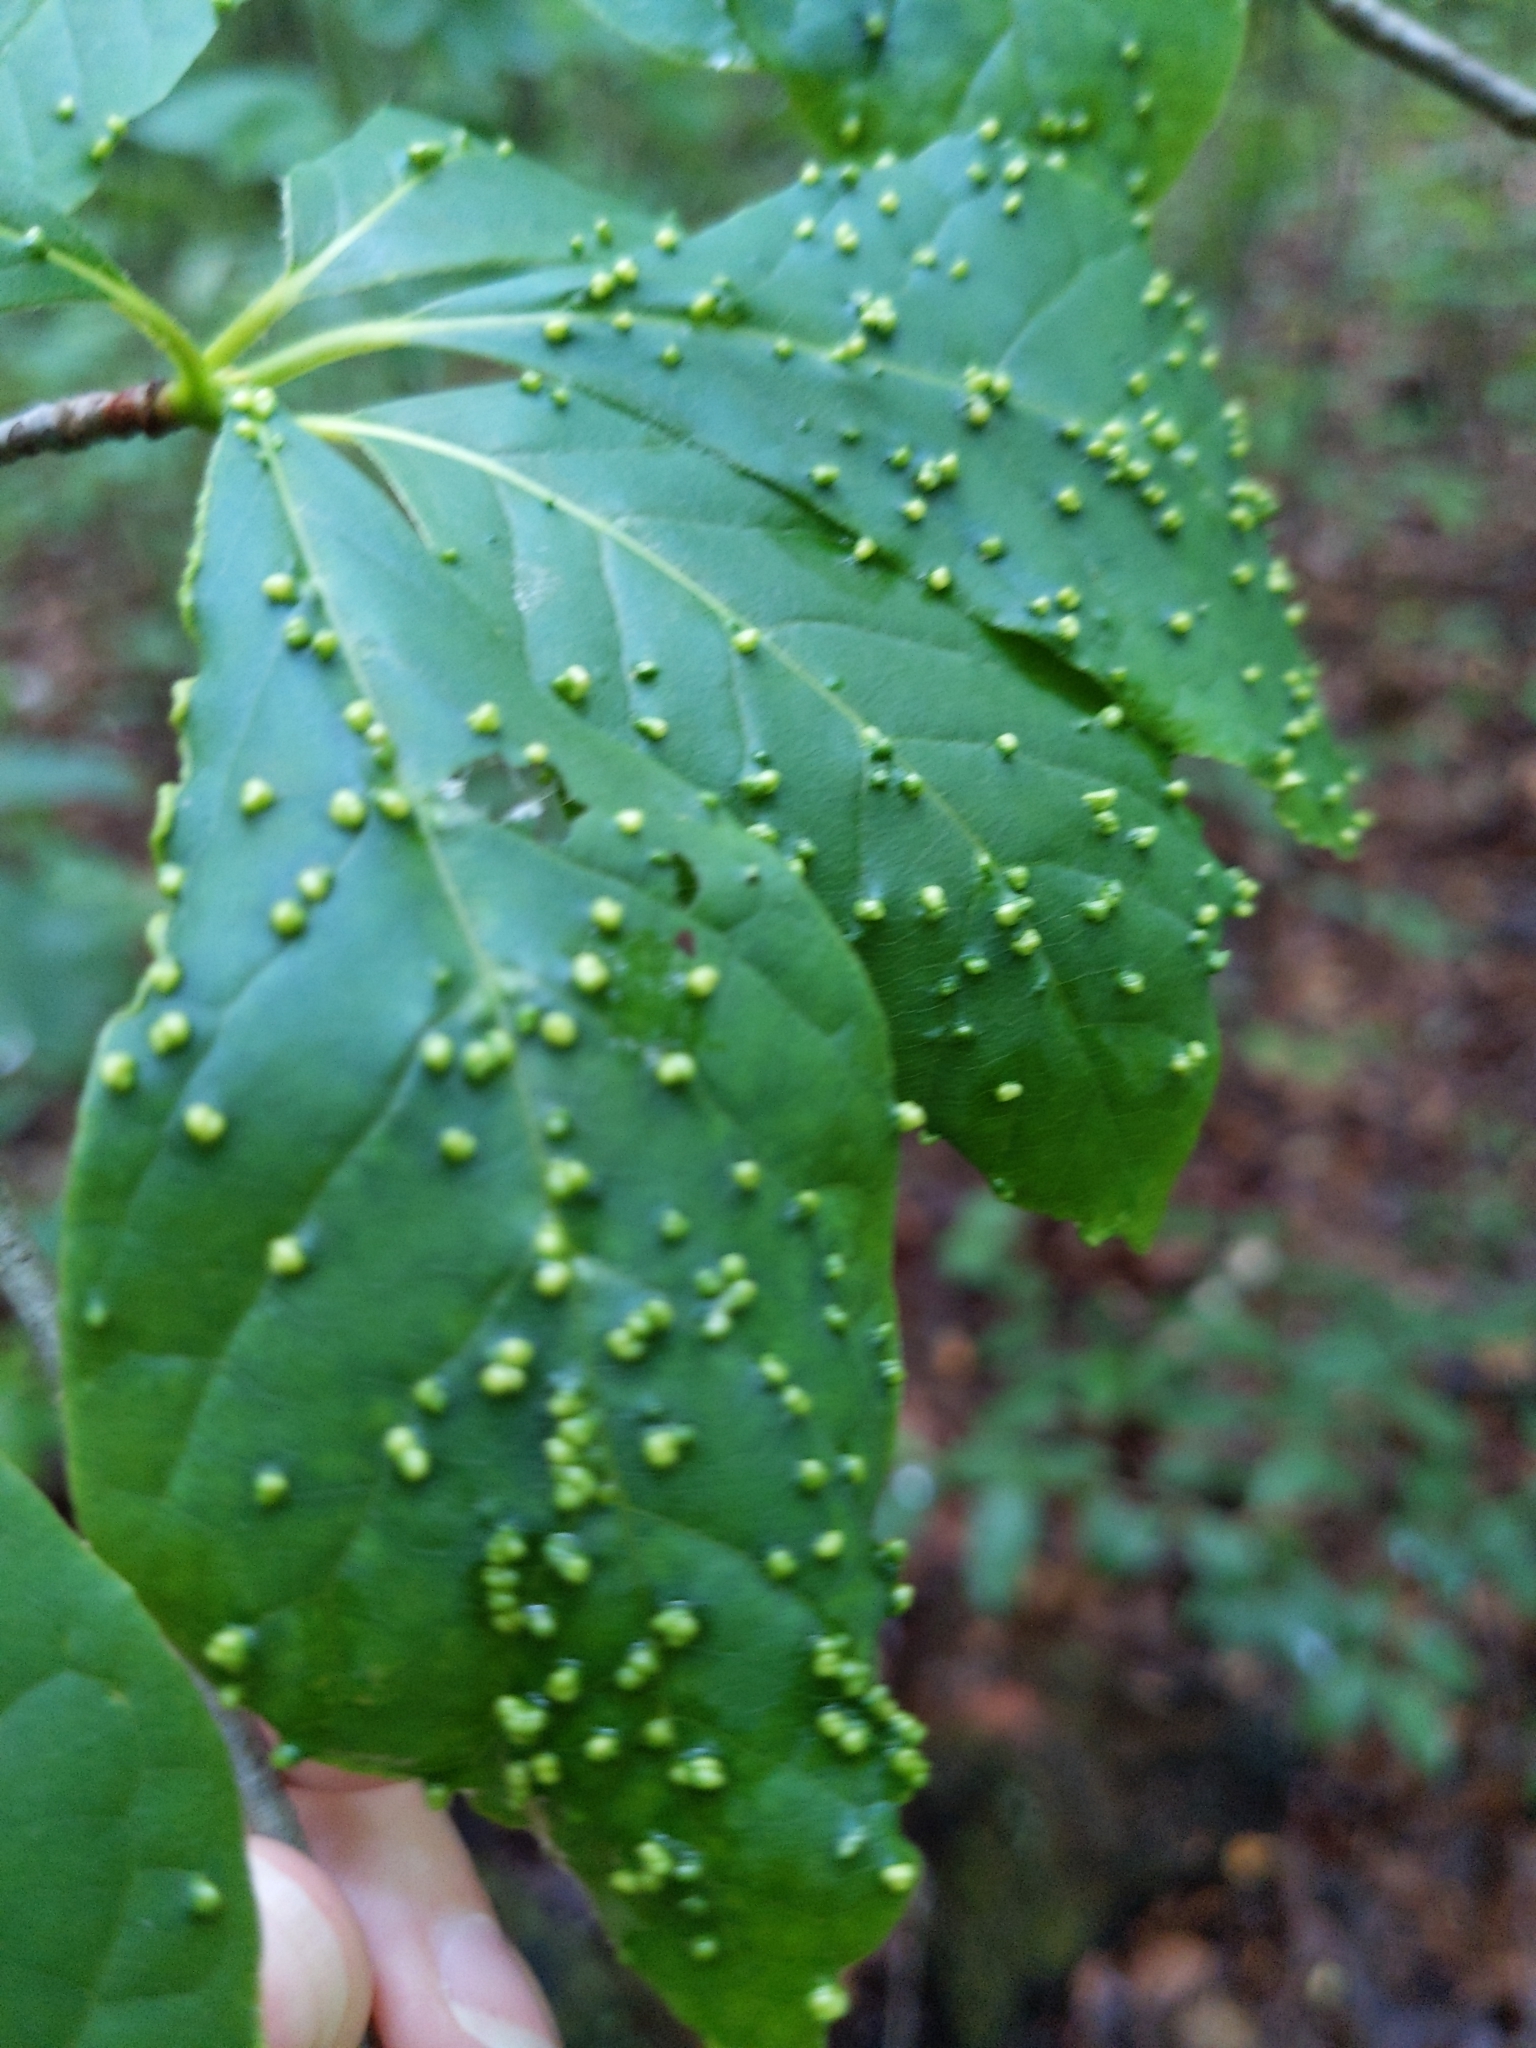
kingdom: Animalia
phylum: Arthropoda
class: Arachnida
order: Trombidiformes
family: Eriophyidae
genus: Aceria
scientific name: Aceria
